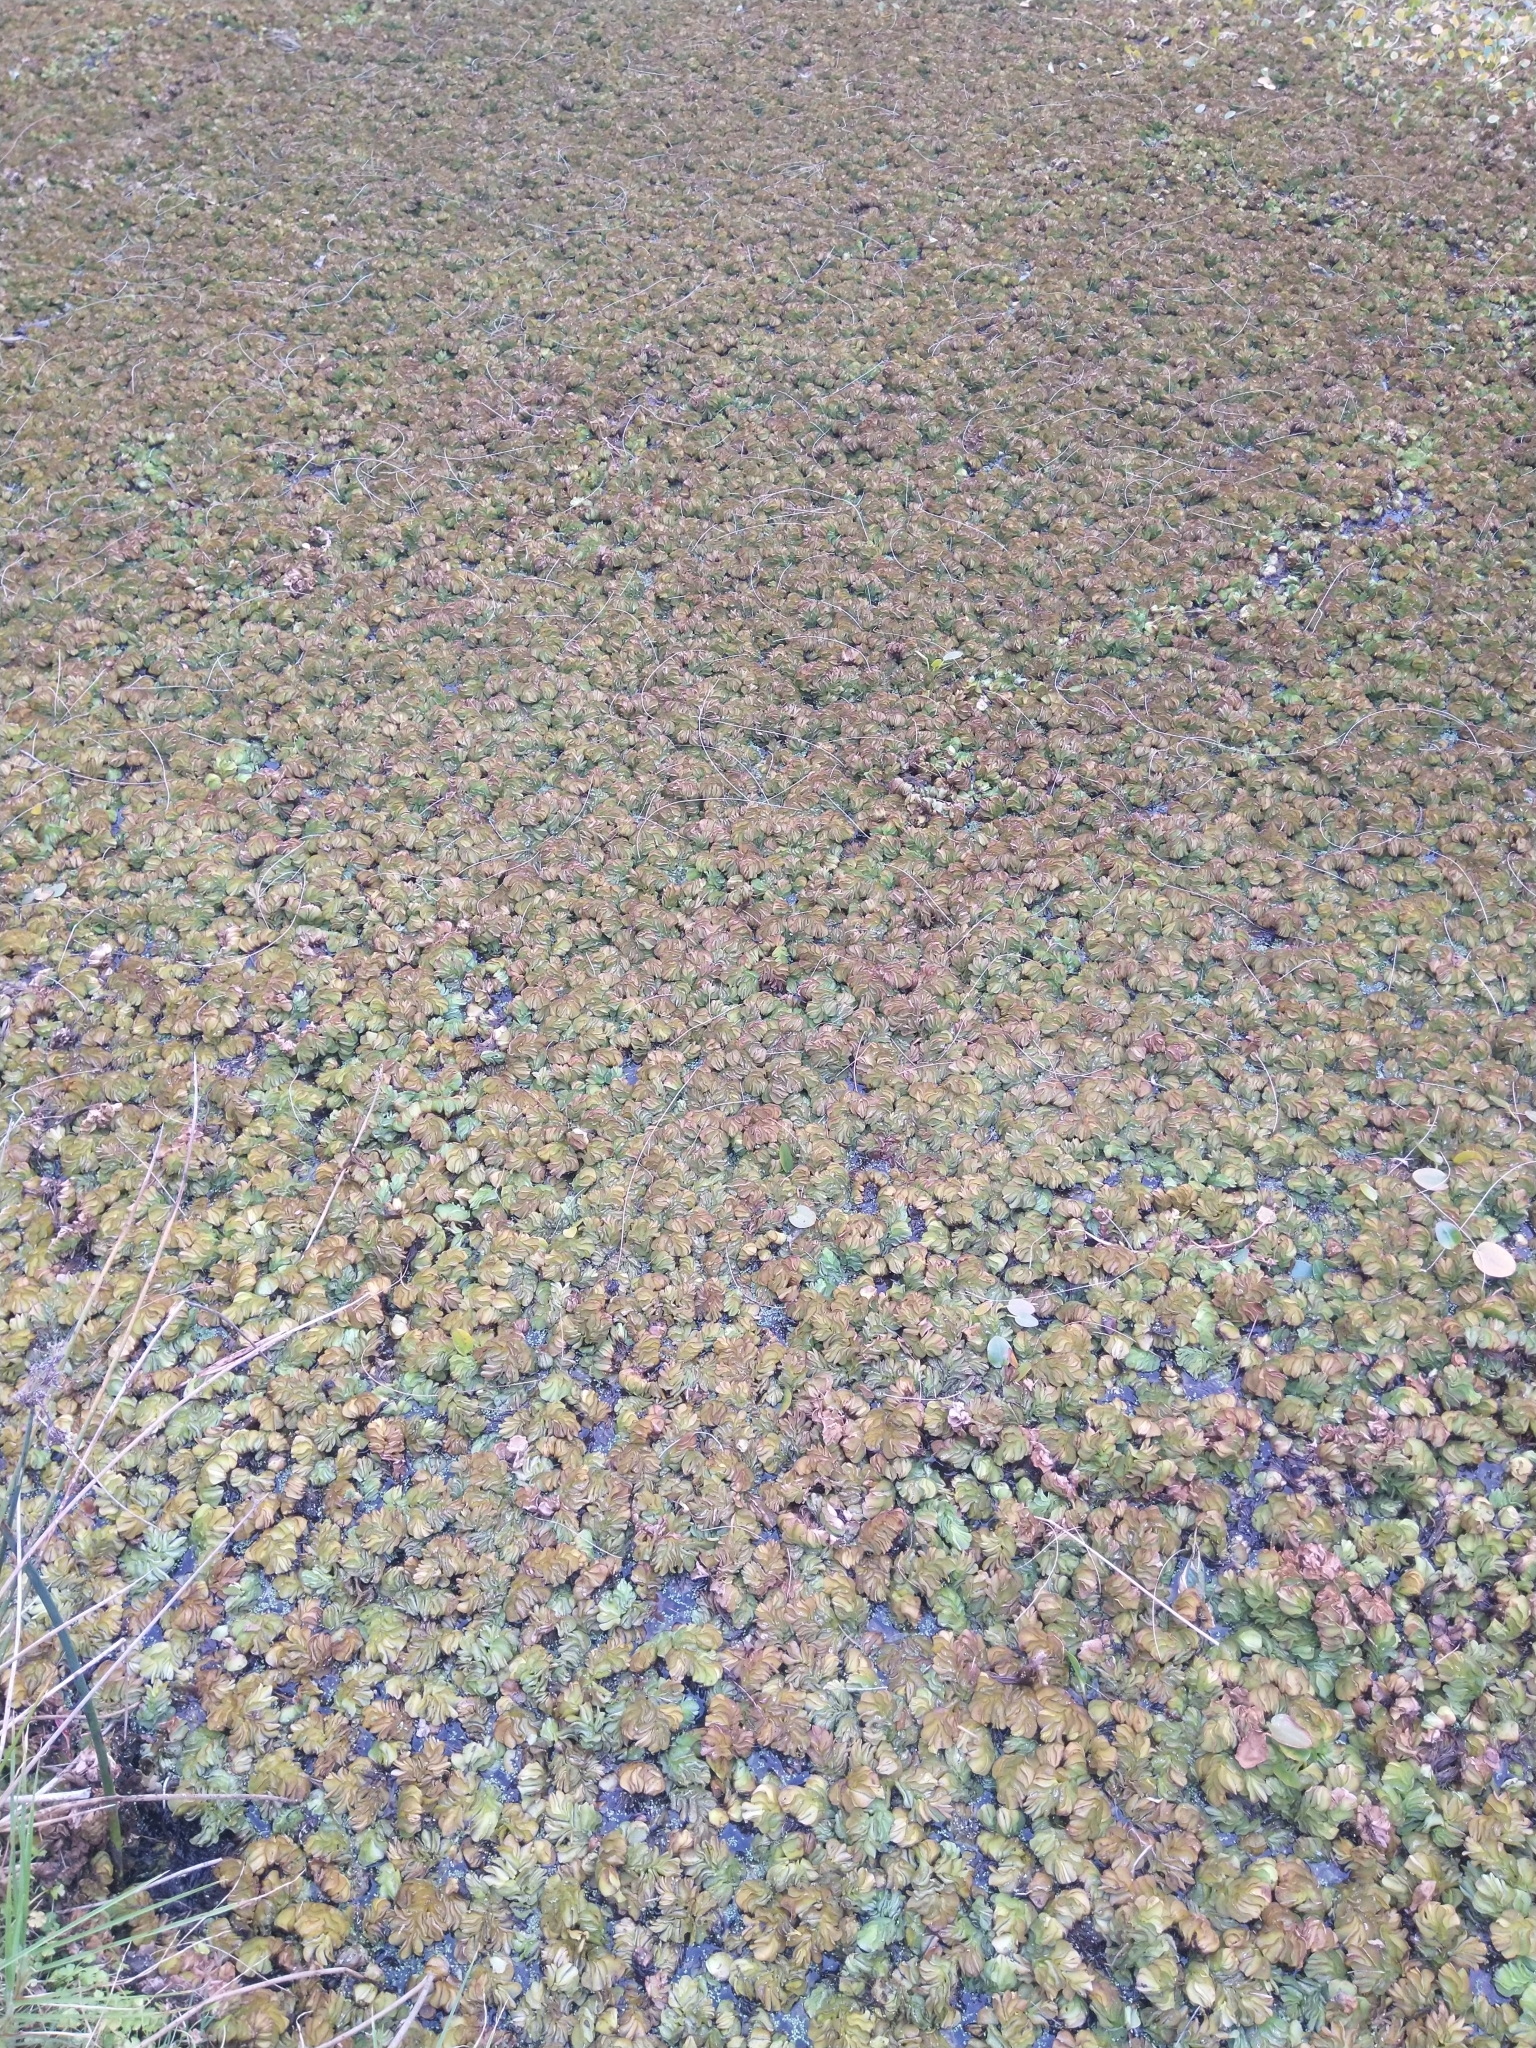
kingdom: Plantae
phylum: Tracheophyta
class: Polypodiopsida
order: Salviniales
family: Salviniaceae
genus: Salvinia
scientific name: Salvinia molesta
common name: Kariba weed
